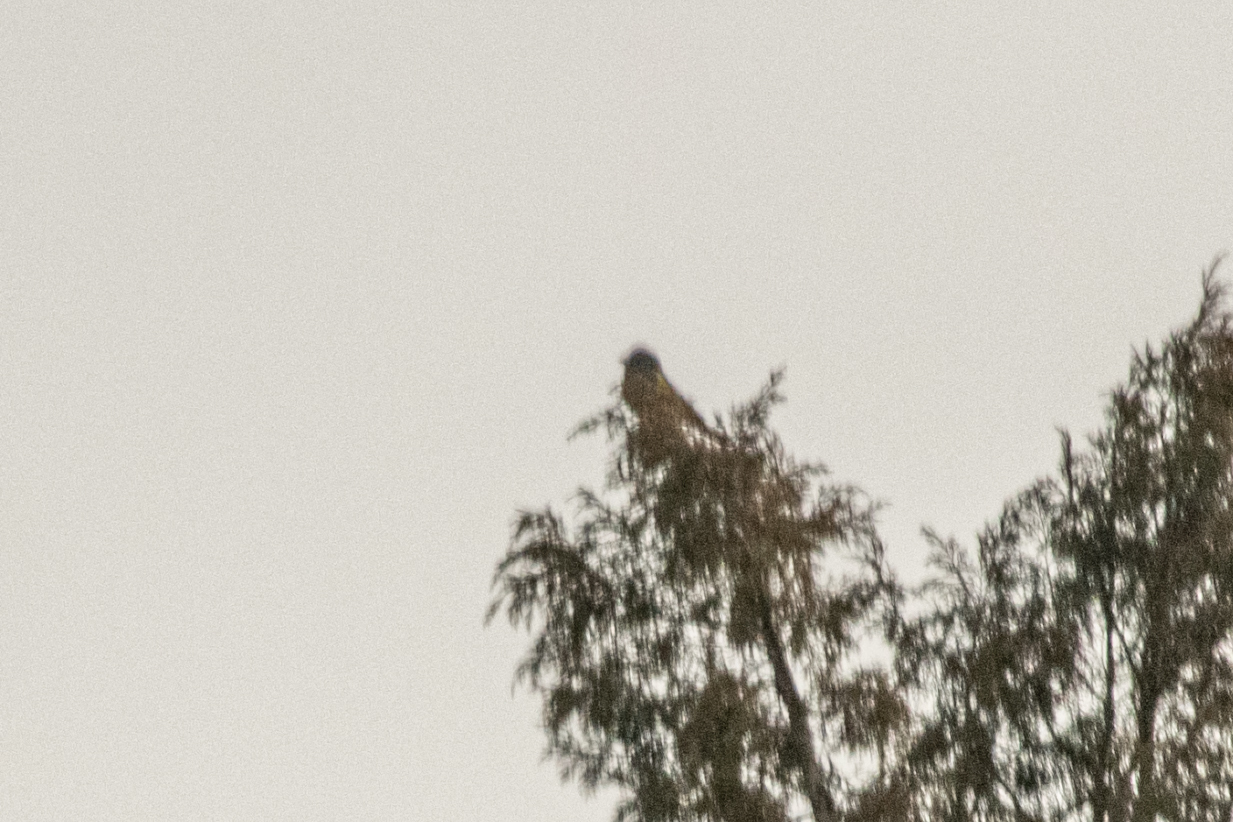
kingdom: Animalia
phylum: Chordata
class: Aves
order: Passeriformes
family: Fringillidae
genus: Mycerobas
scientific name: Mycerobas carnipes
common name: White-winged grosbeak
